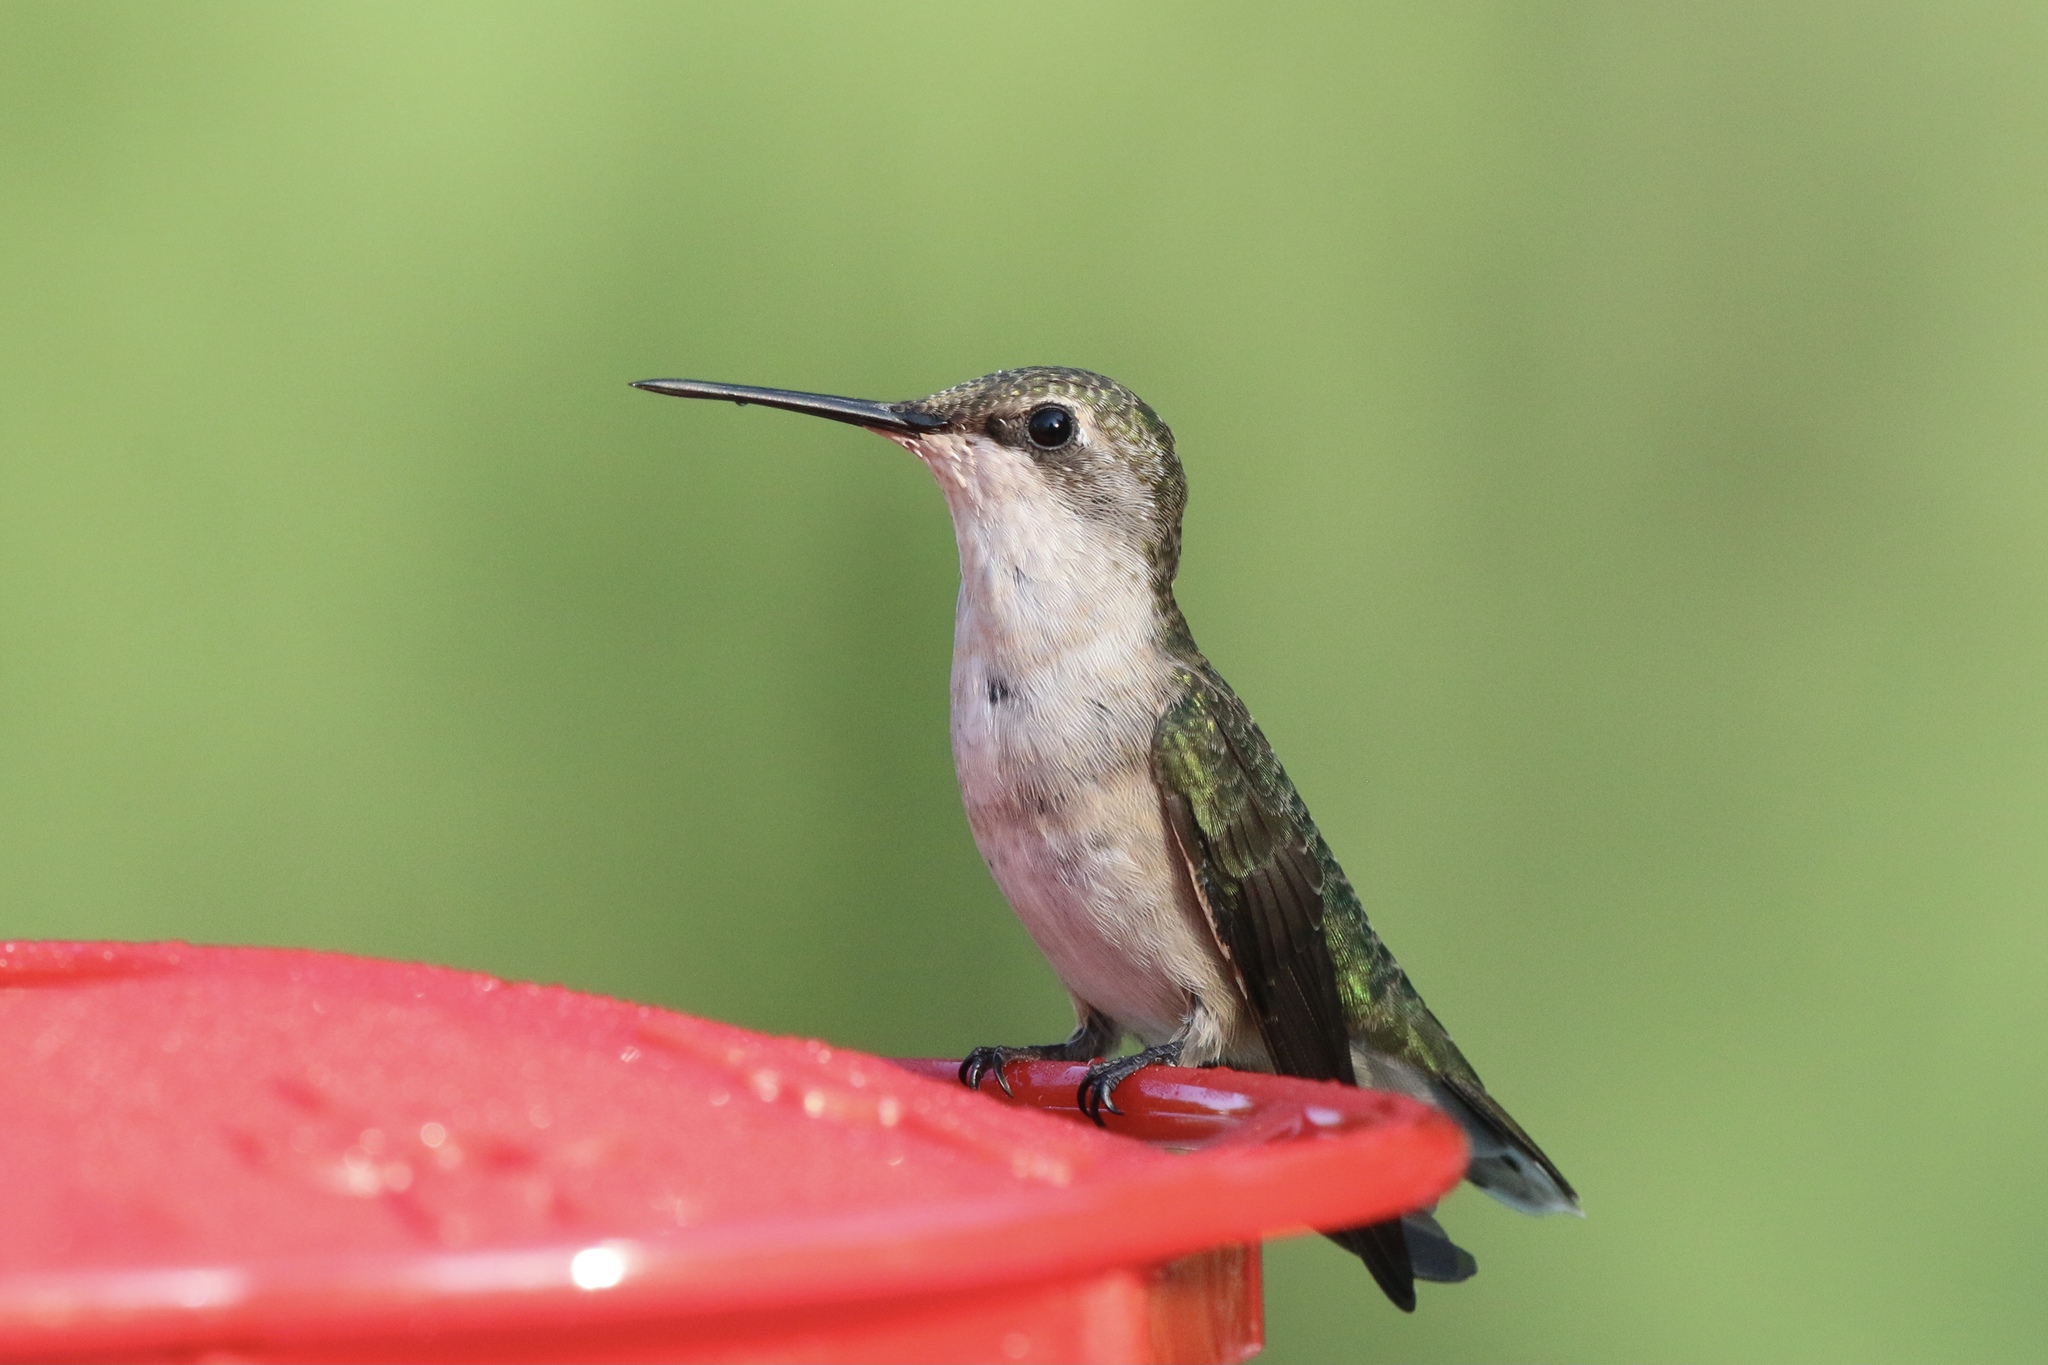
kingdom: Animalia
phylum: Chordata
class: Aves
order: Apodiformes
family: Trochilidae
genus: Archilochus
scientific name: Archilochus colubris
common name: Ruby-throated hummingbird
